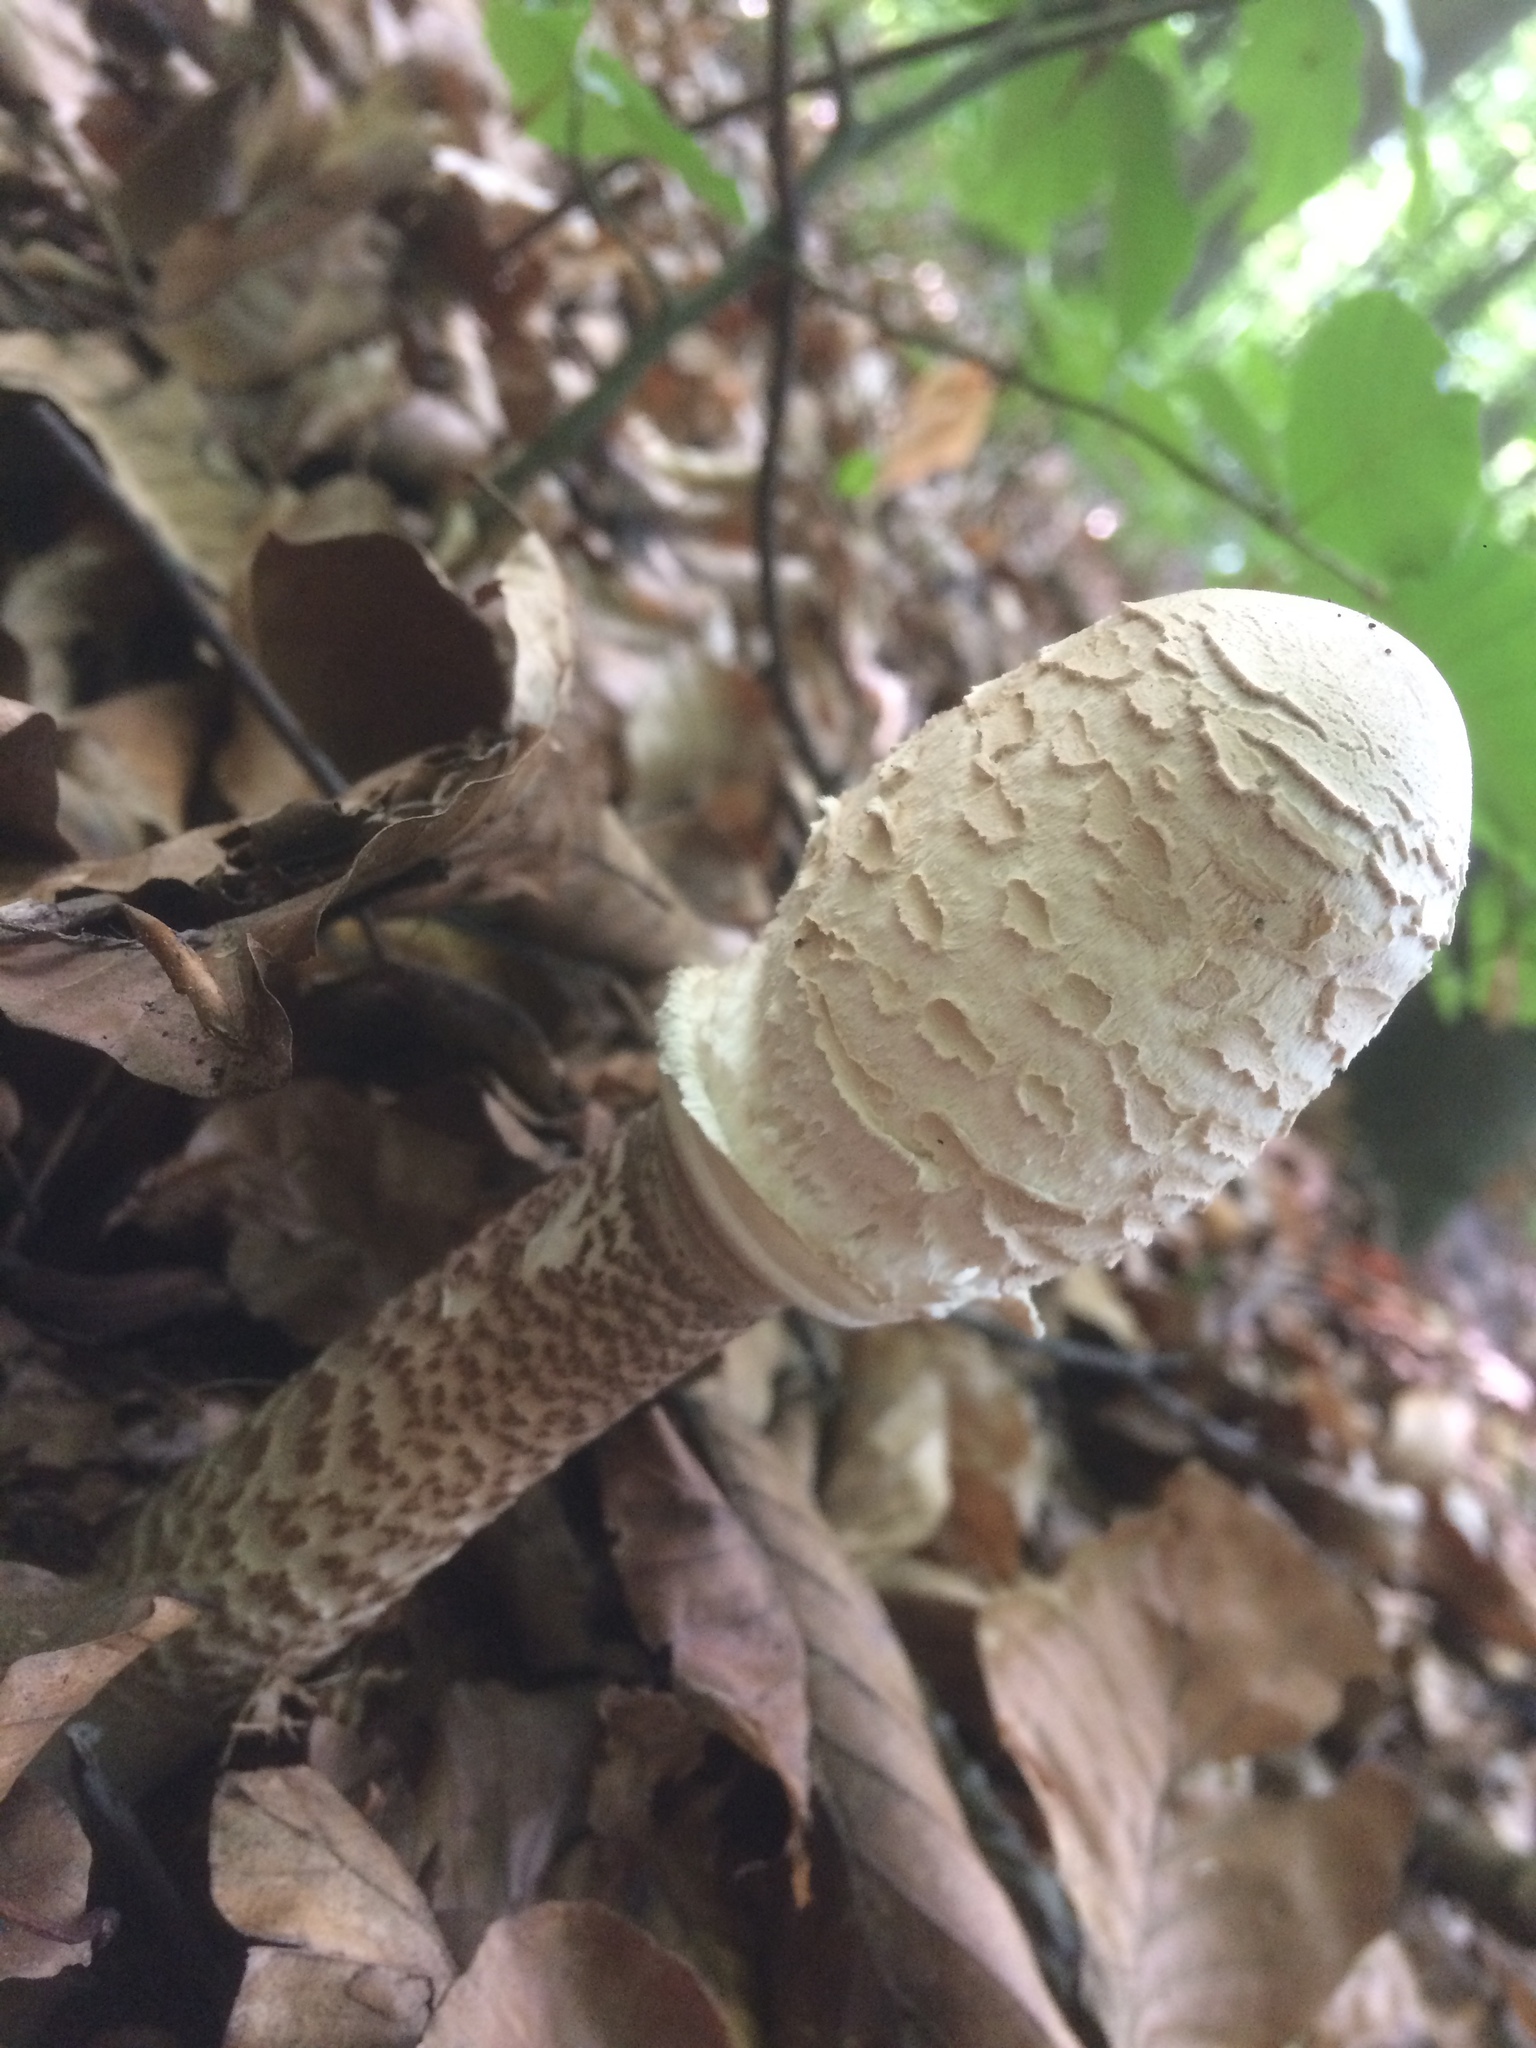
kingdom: Fungi
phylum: Basidiomycota
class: Agaricomycetes
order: Agaricales
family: Agaricaceae
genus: Macrolepiota
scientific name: Macrolepiota procera
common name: Parasol
